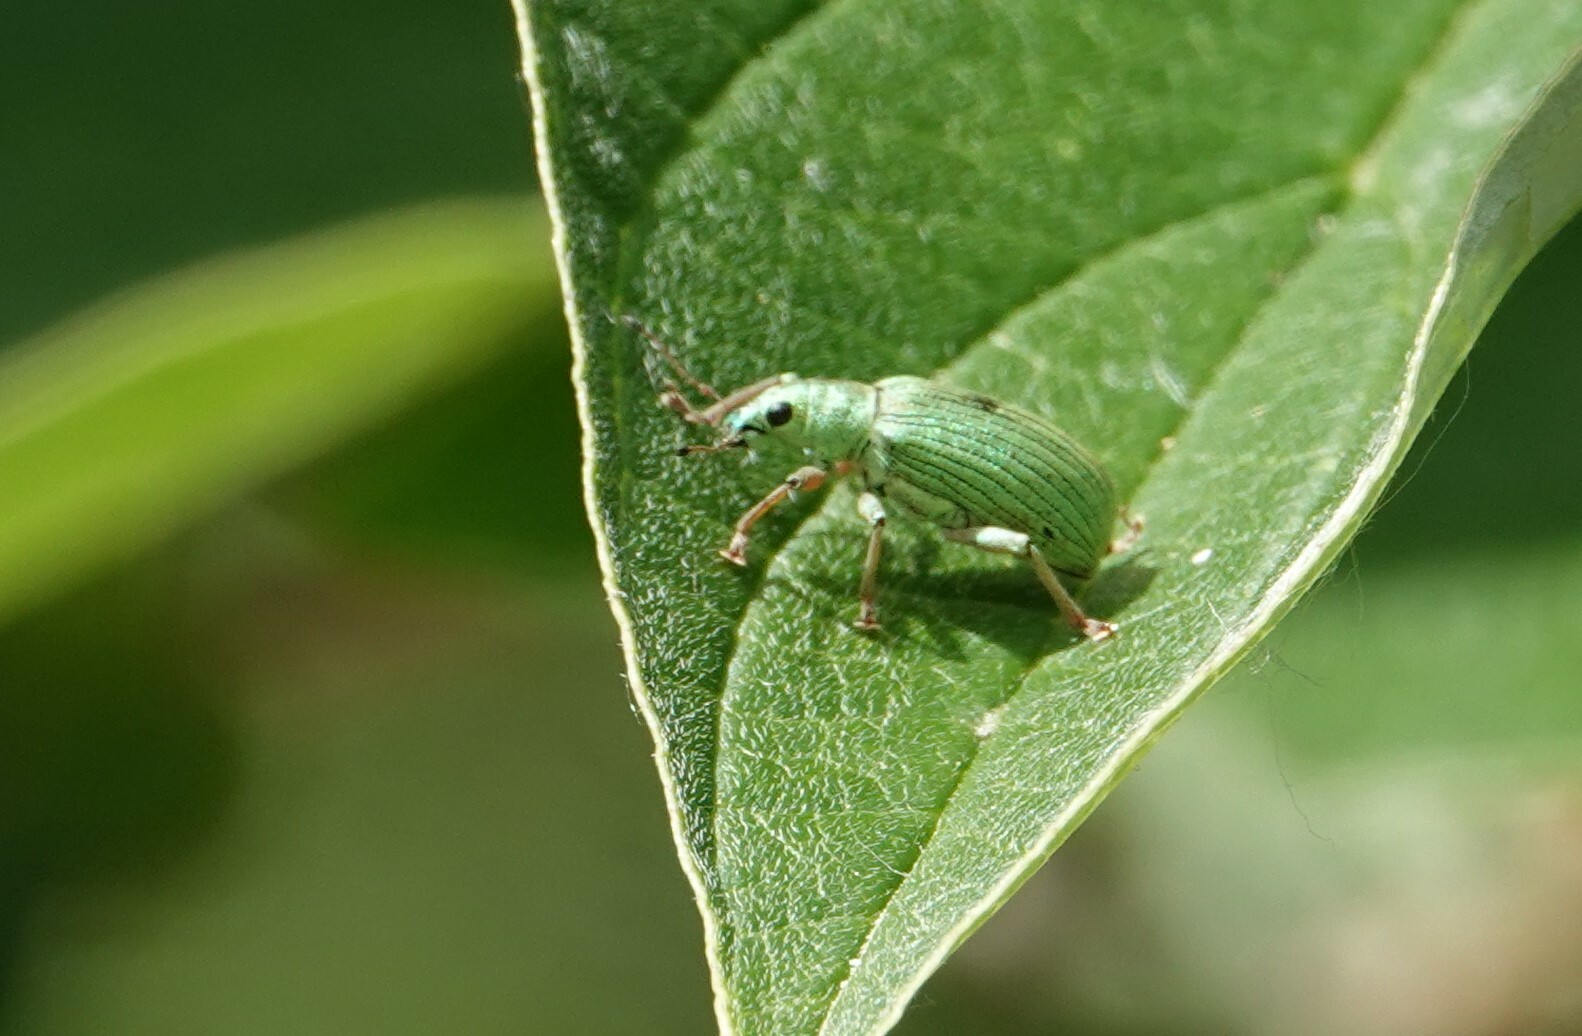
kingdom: Animalia
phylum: Arthropoda
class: Insecta
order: Coleoptera
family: Curculionidae
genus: Polydrusus
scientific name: Polydrusus formosus
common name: Weevil
